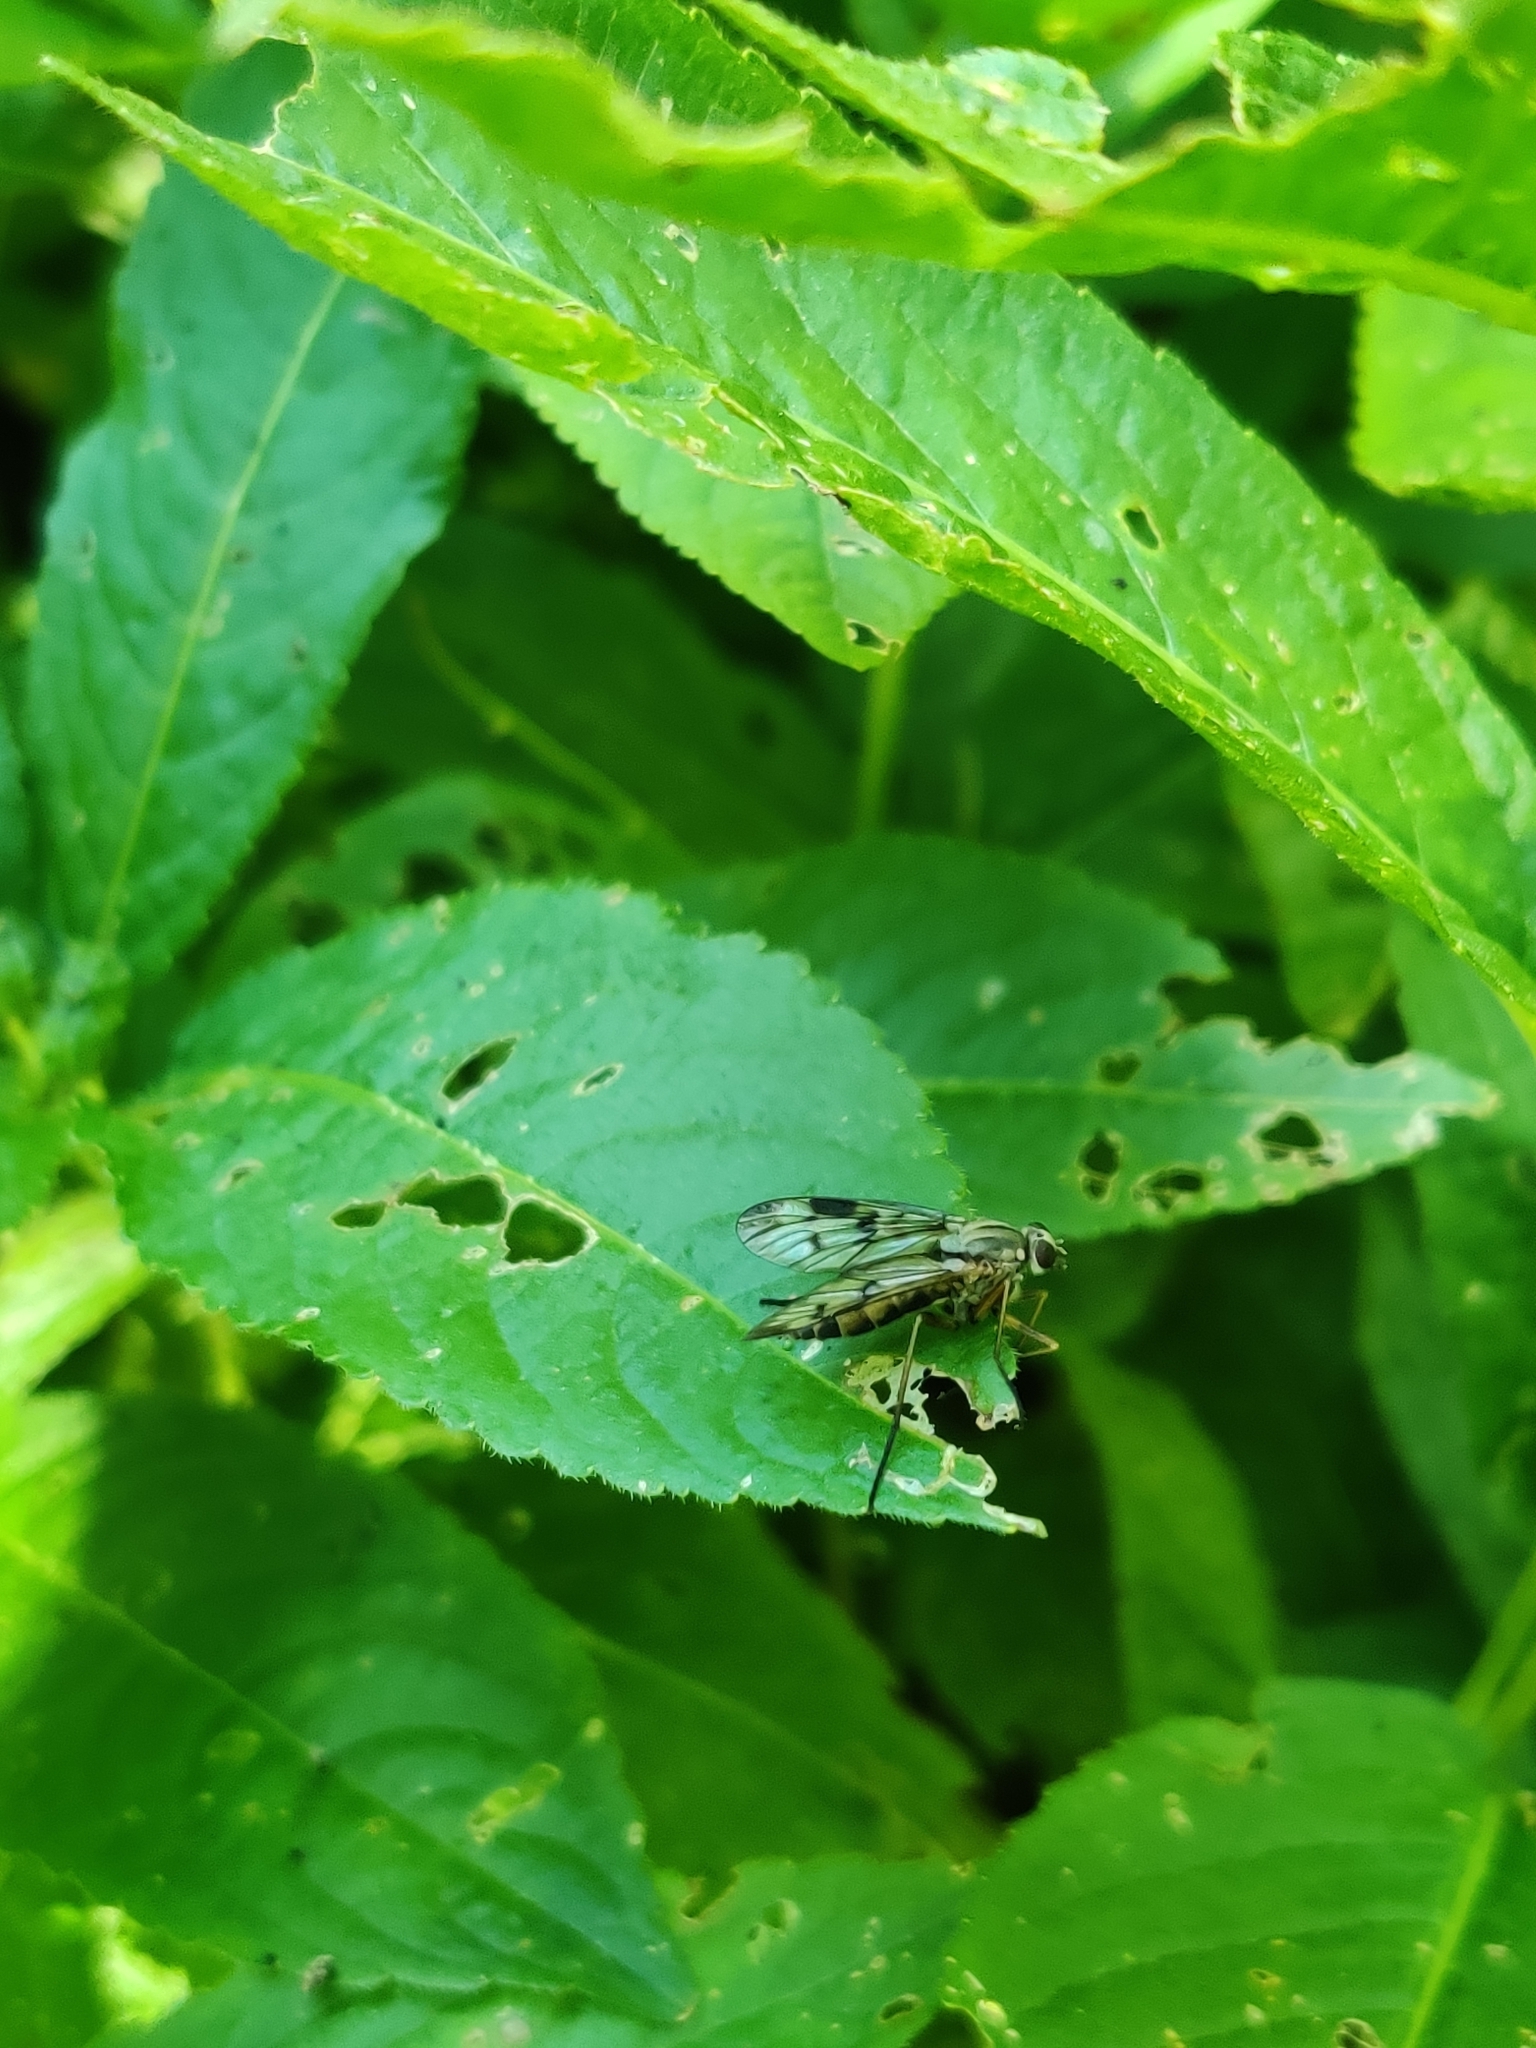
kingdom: Animalia
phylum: Arthropoda
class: Insecta
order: Diptera
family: Rhagionidae
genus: Rhagio
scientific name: Rhagio tringaria
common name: Marsh snipefly
